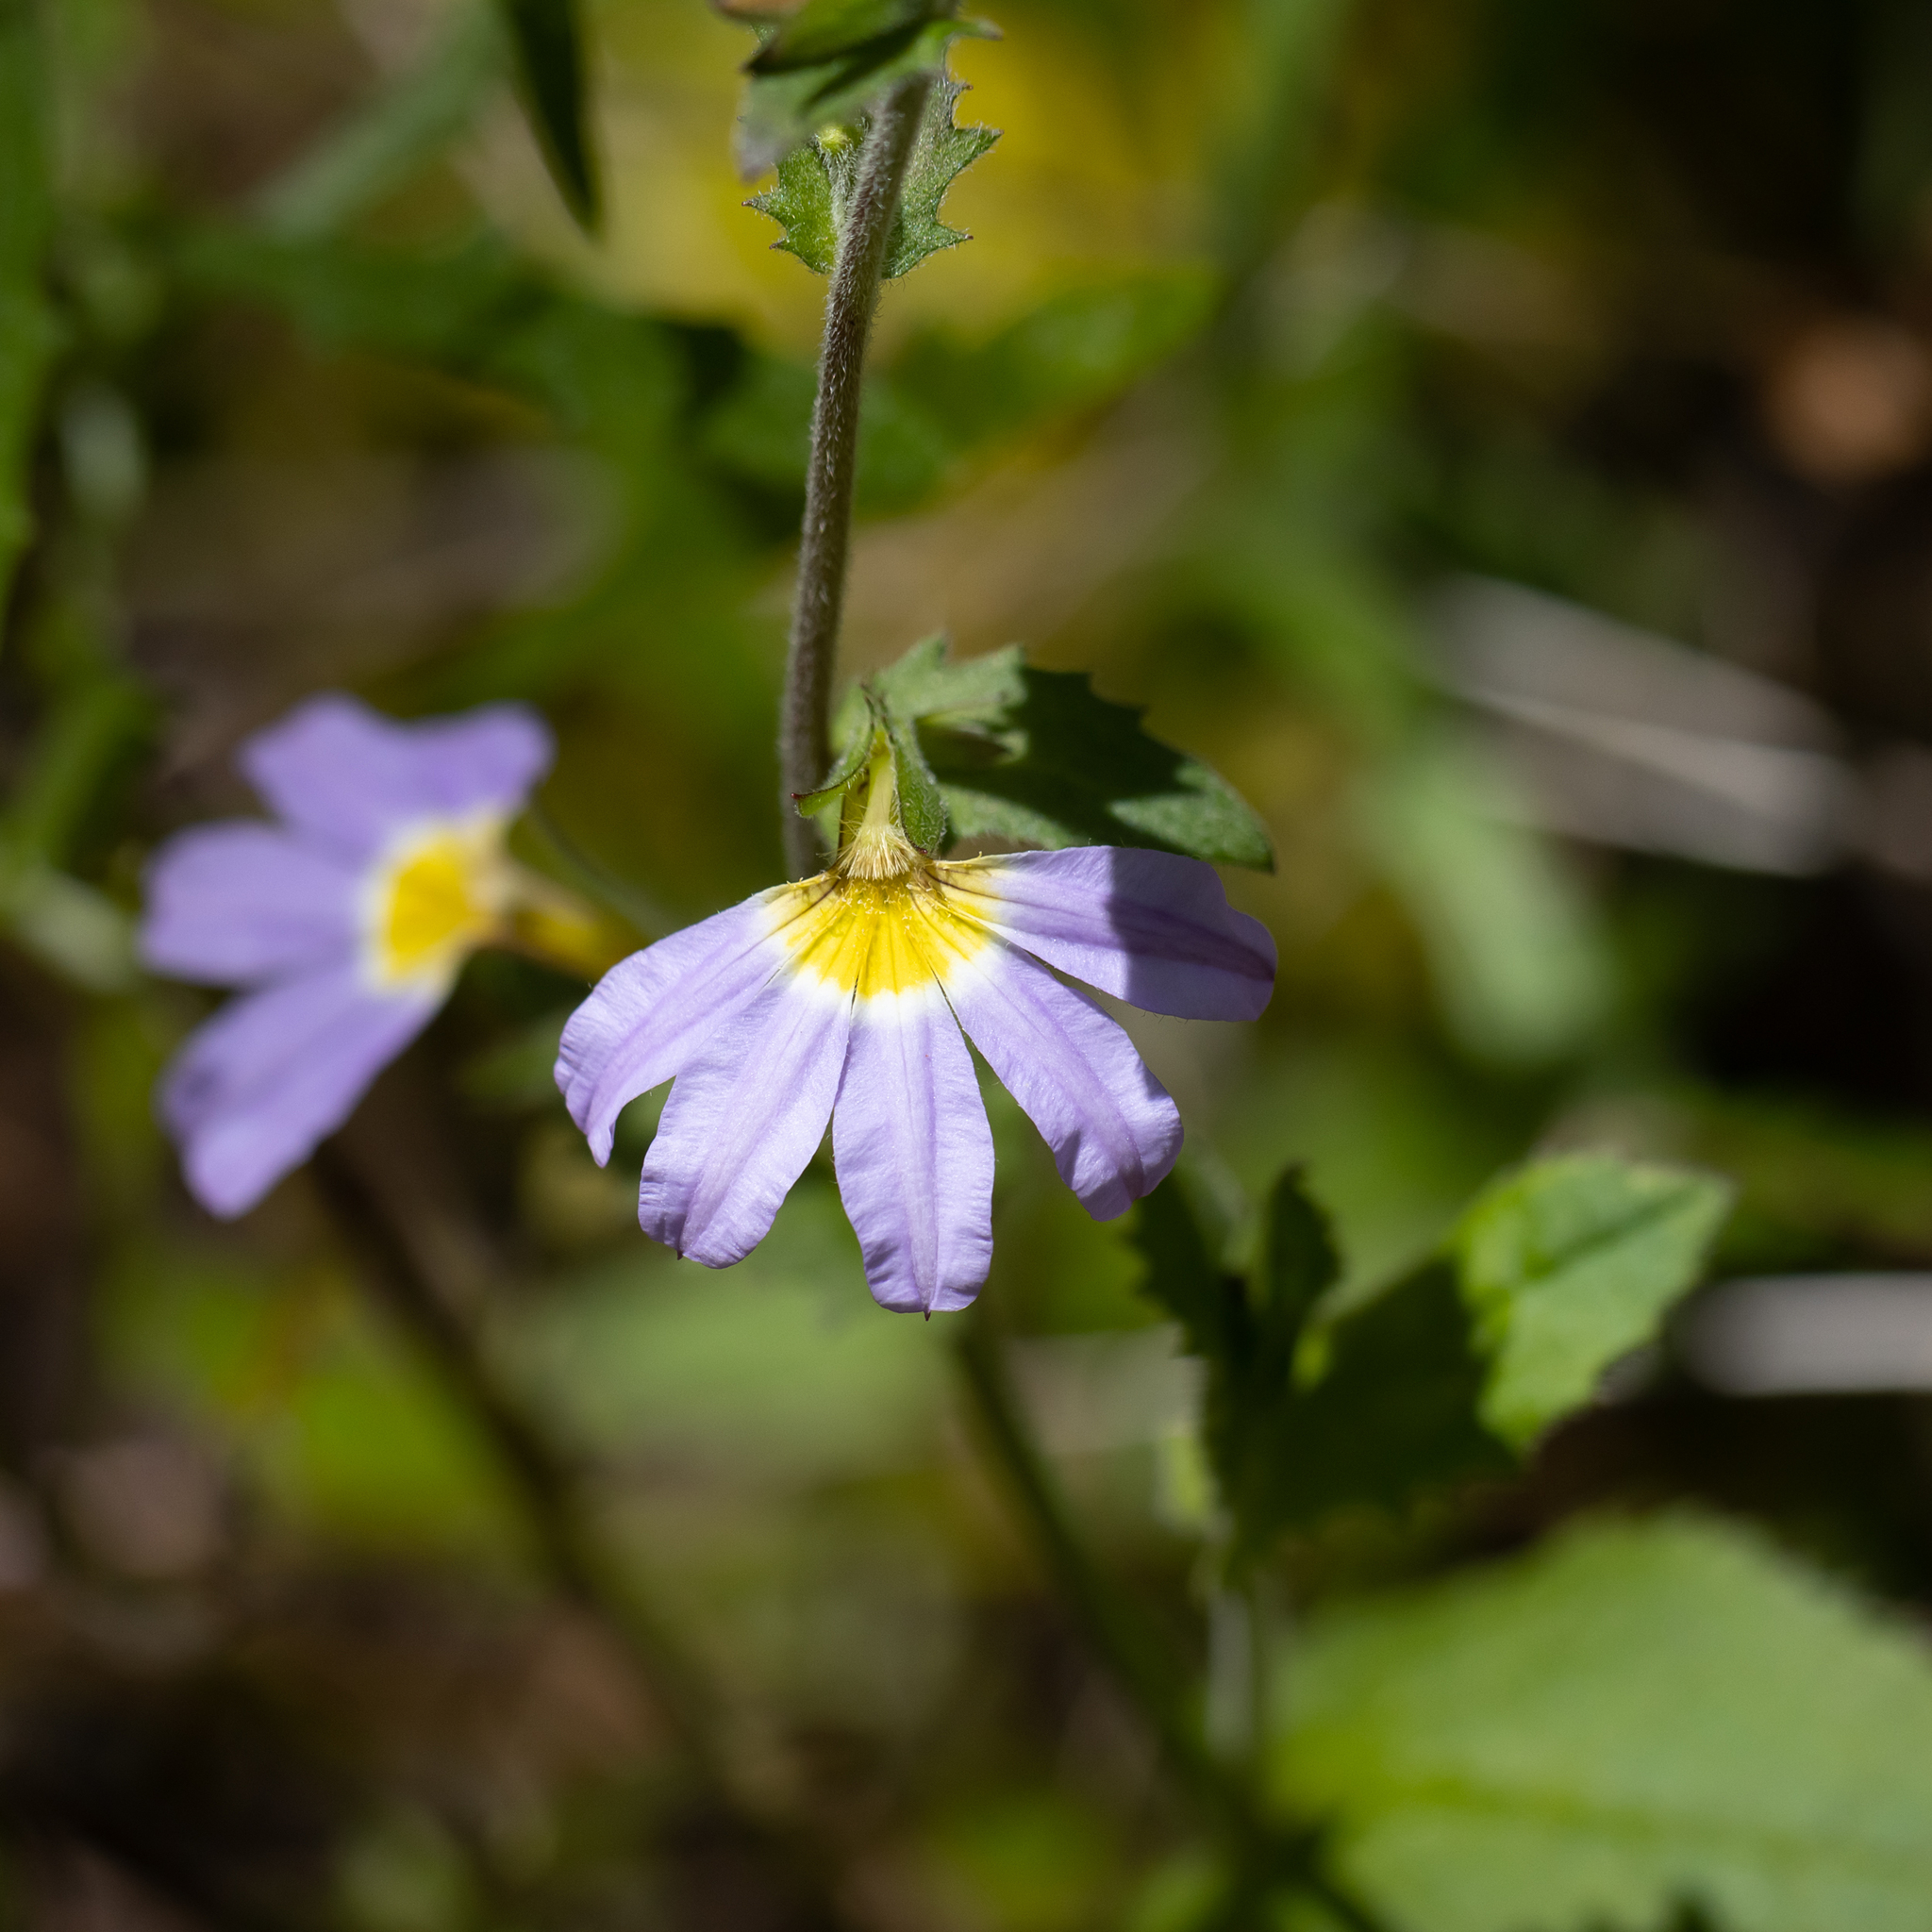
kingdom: Plantae
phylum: Tracheophyta
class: Magnoliopsida
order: Asterales
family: Goodeniaceae
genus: Scaevola
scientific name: Scaevola microphylla
